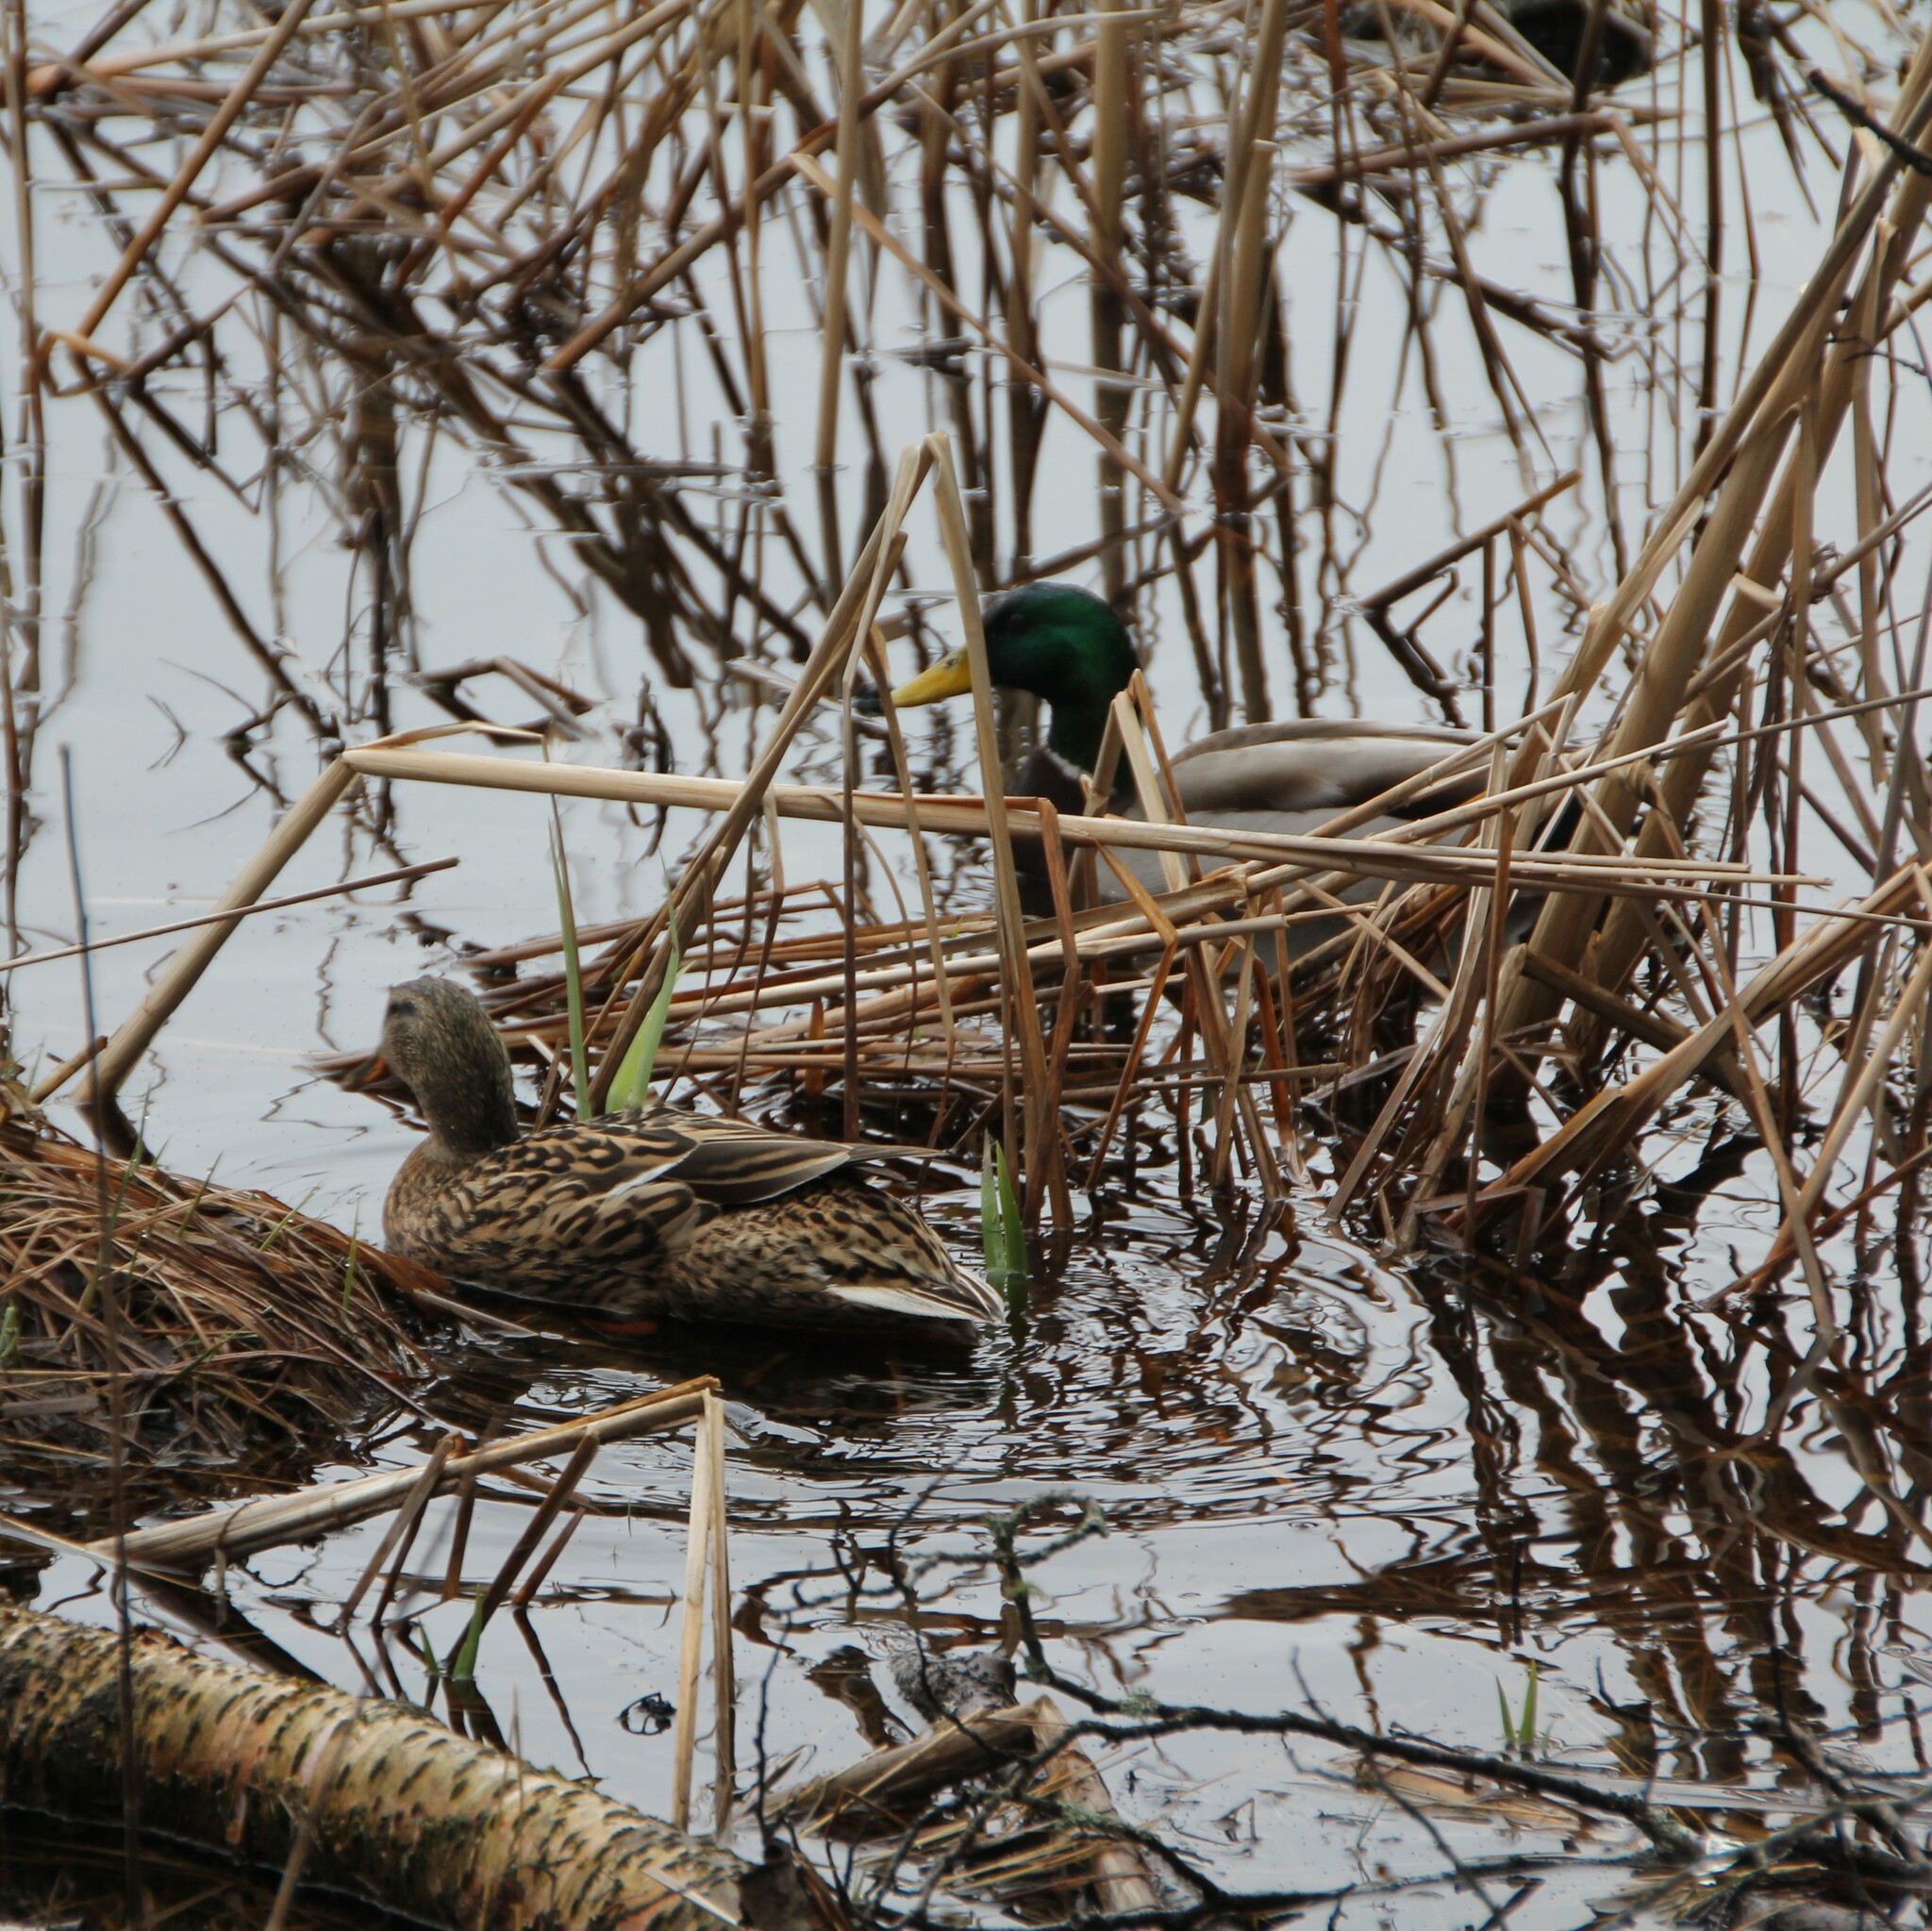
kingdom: Animalia
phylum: Chordata
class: Aves
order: Anseriformes
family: Anatidae
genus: Anas
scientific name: Anas platyrhynchos
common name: Mallard
